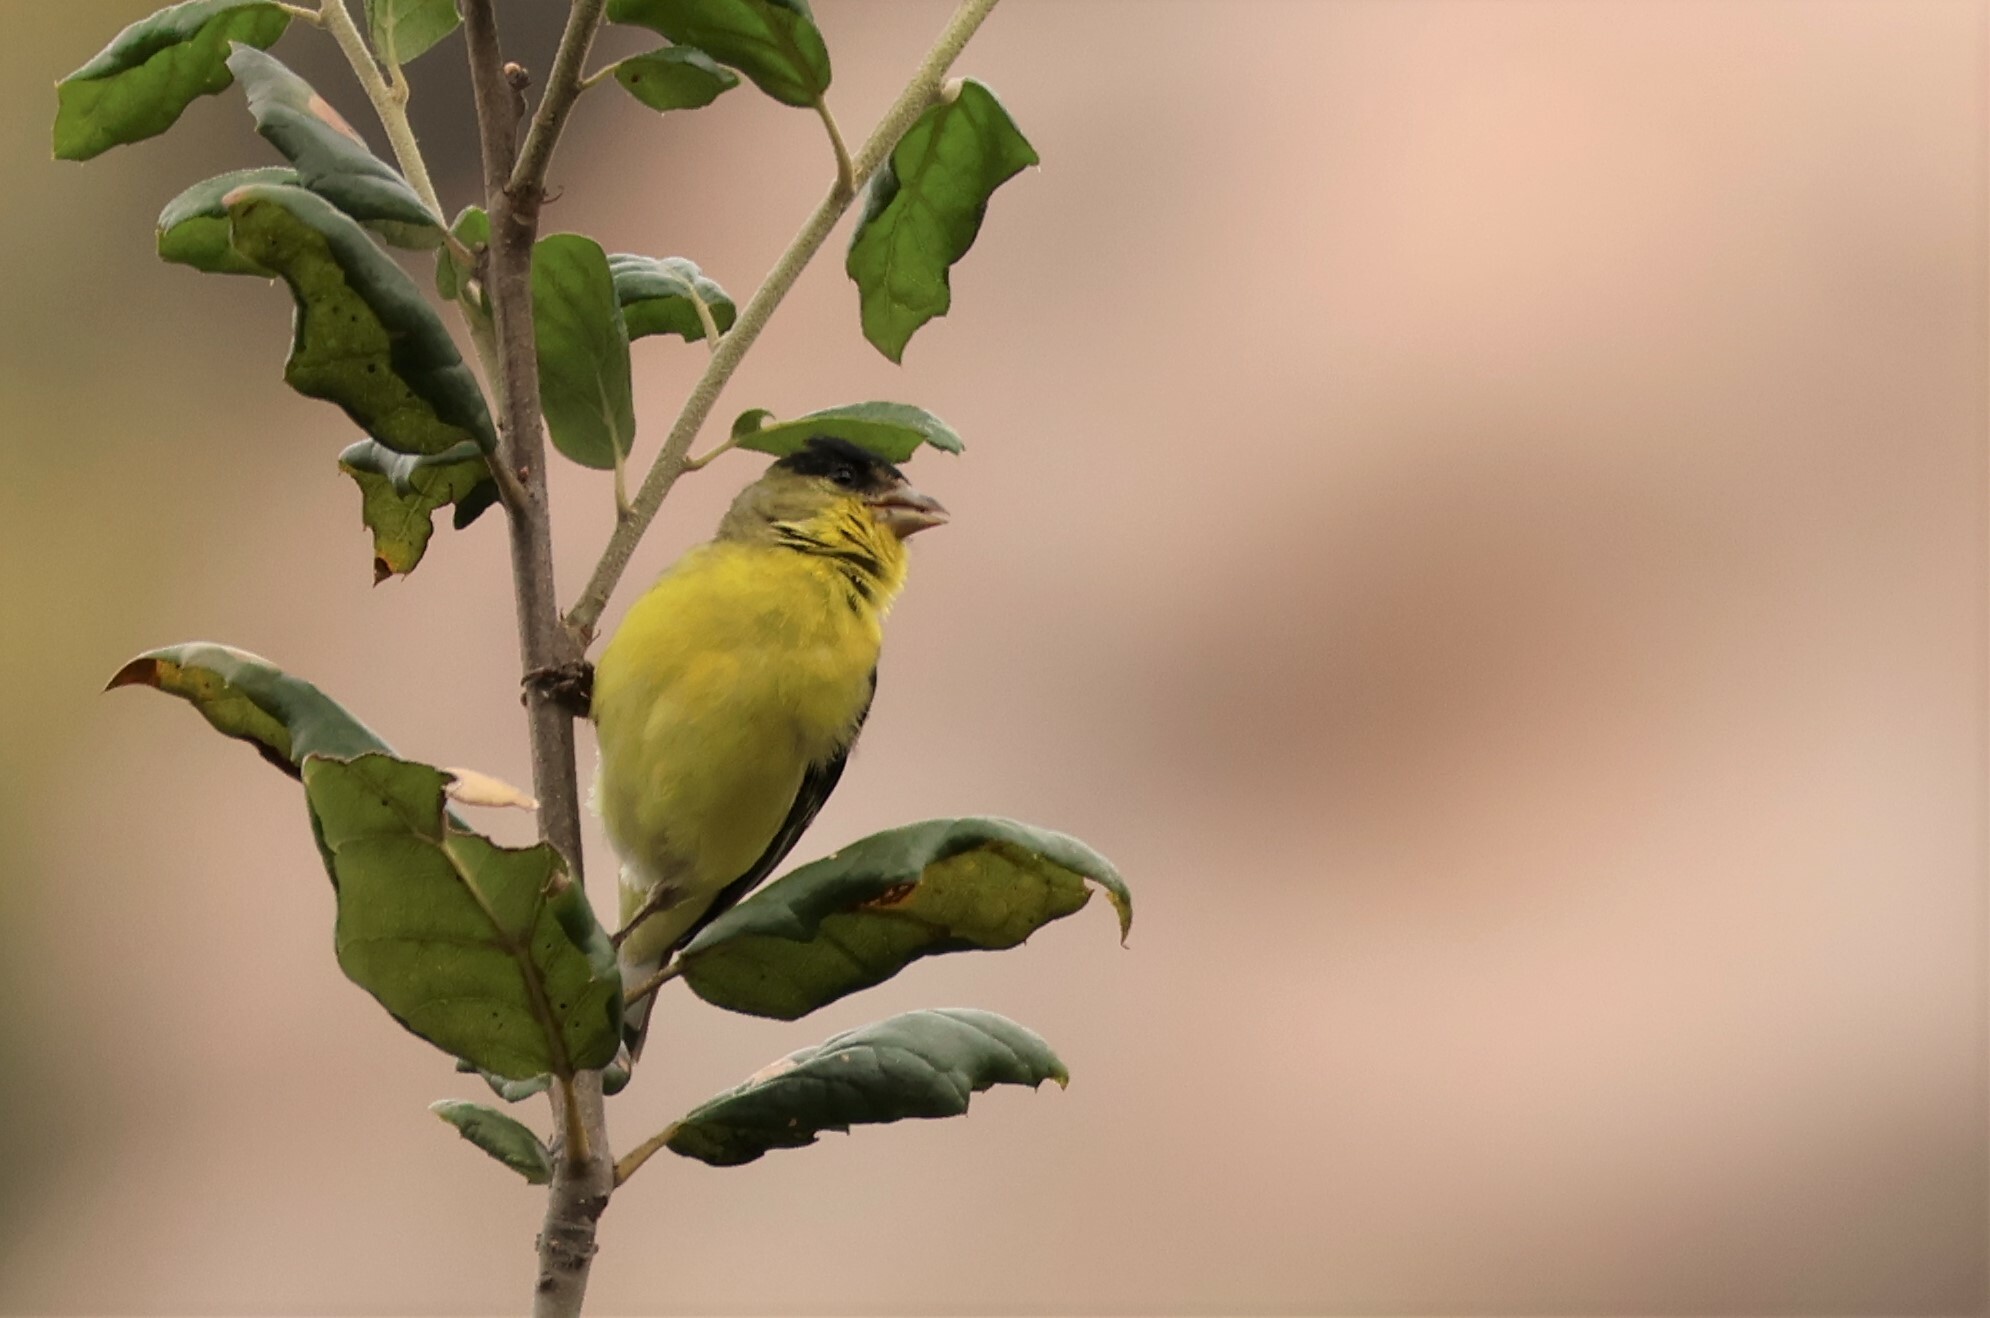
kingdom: Animalia
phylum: Chordata
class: Aves
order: Passeriformes
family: Fringillidae
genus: Spinus
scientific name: Spinus psaltria
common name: Lesser goldfinch
